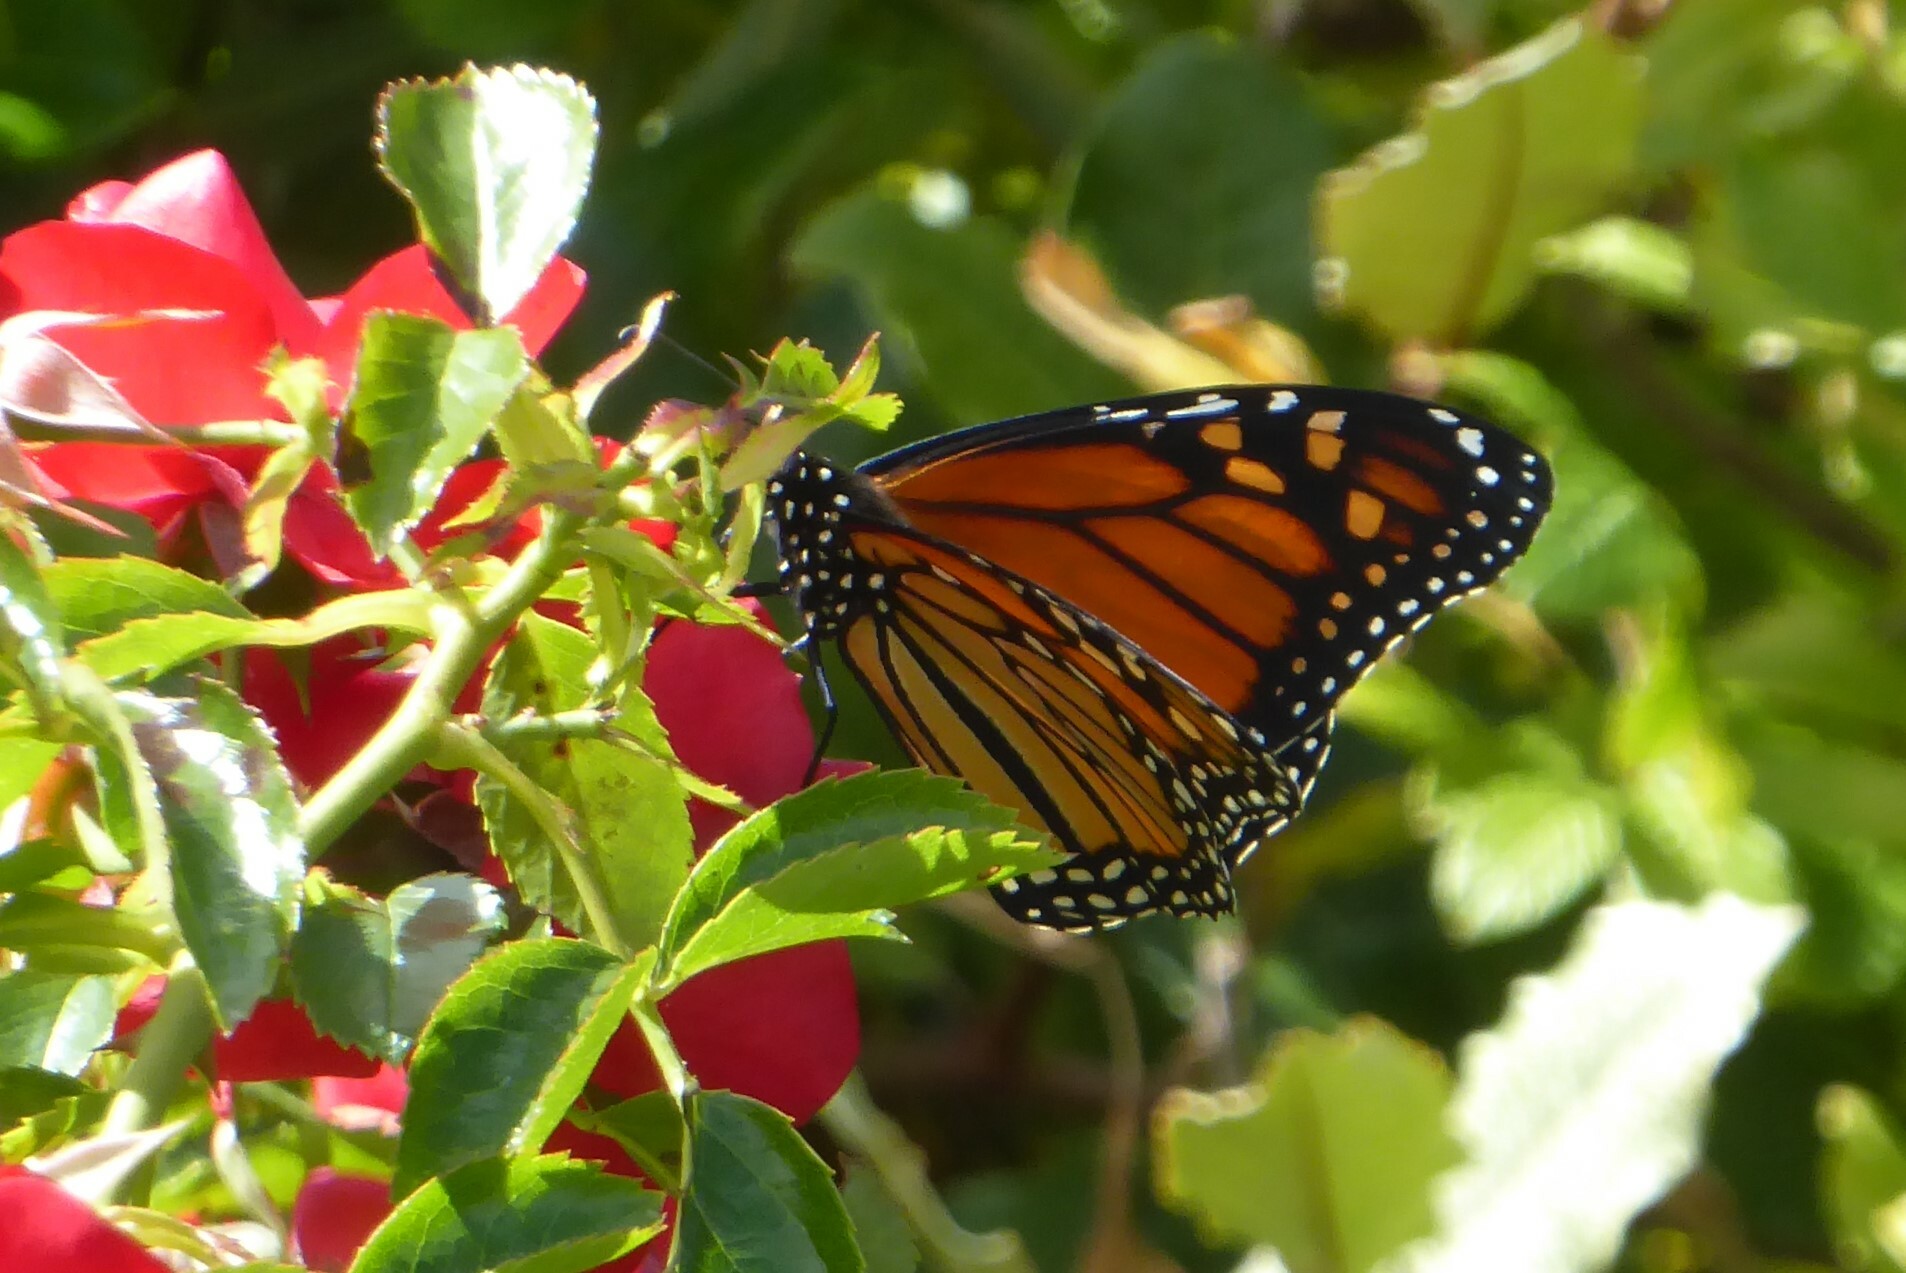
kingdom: Animalia
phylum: Arthropoda
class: Insecta
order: Lepidoptera
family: Nymphalidae
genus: Danaus
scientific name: Danaus plexippus
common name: Monarch
